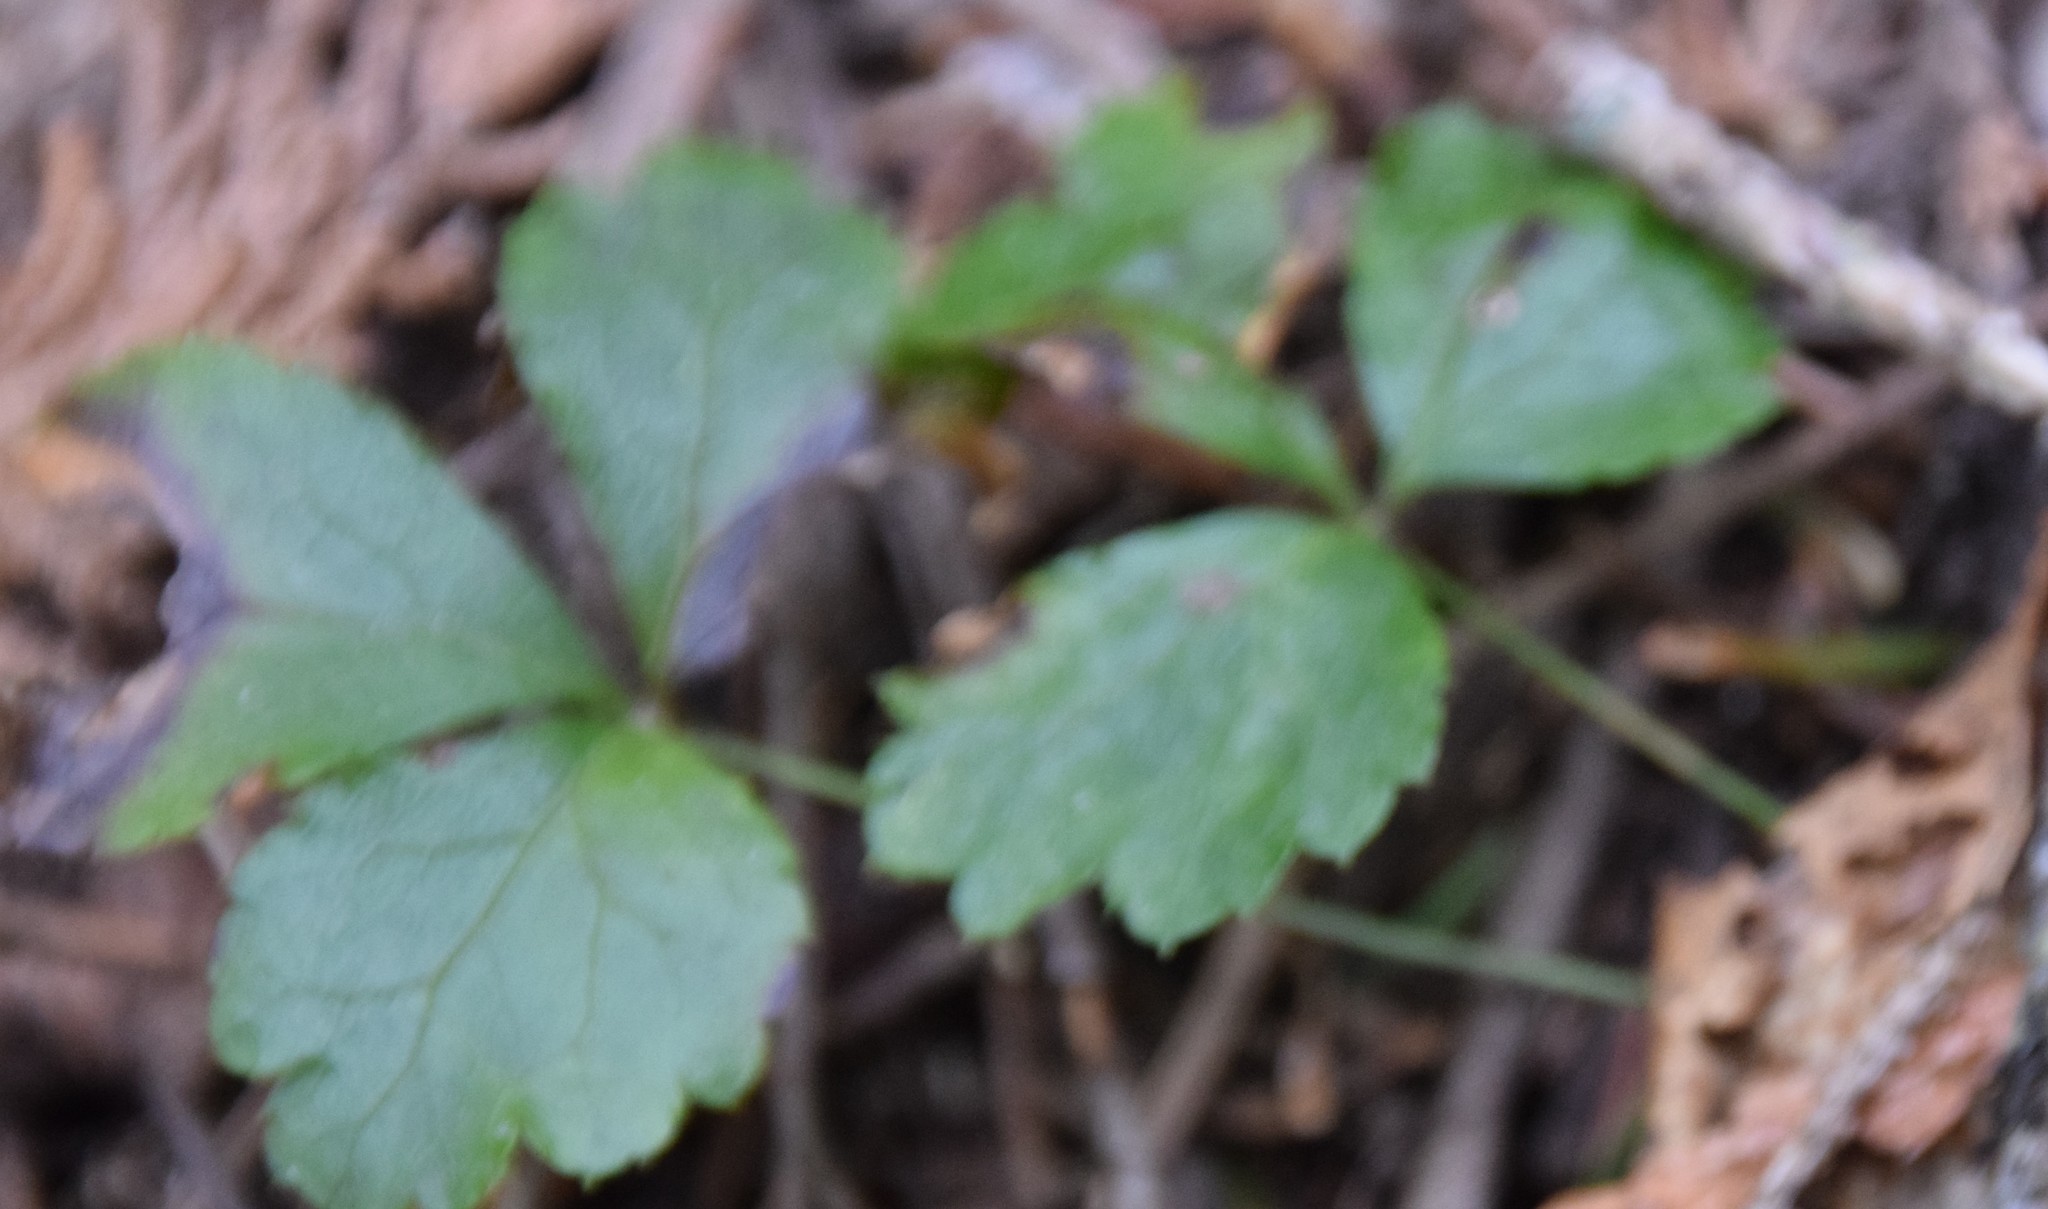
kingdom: Plantae
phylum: Tracheophyta
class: Magnoliopsida
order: Ranunculales
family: Ranunculaceae
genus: Coptis
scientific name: Coptis trifolia
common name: Canker-root
